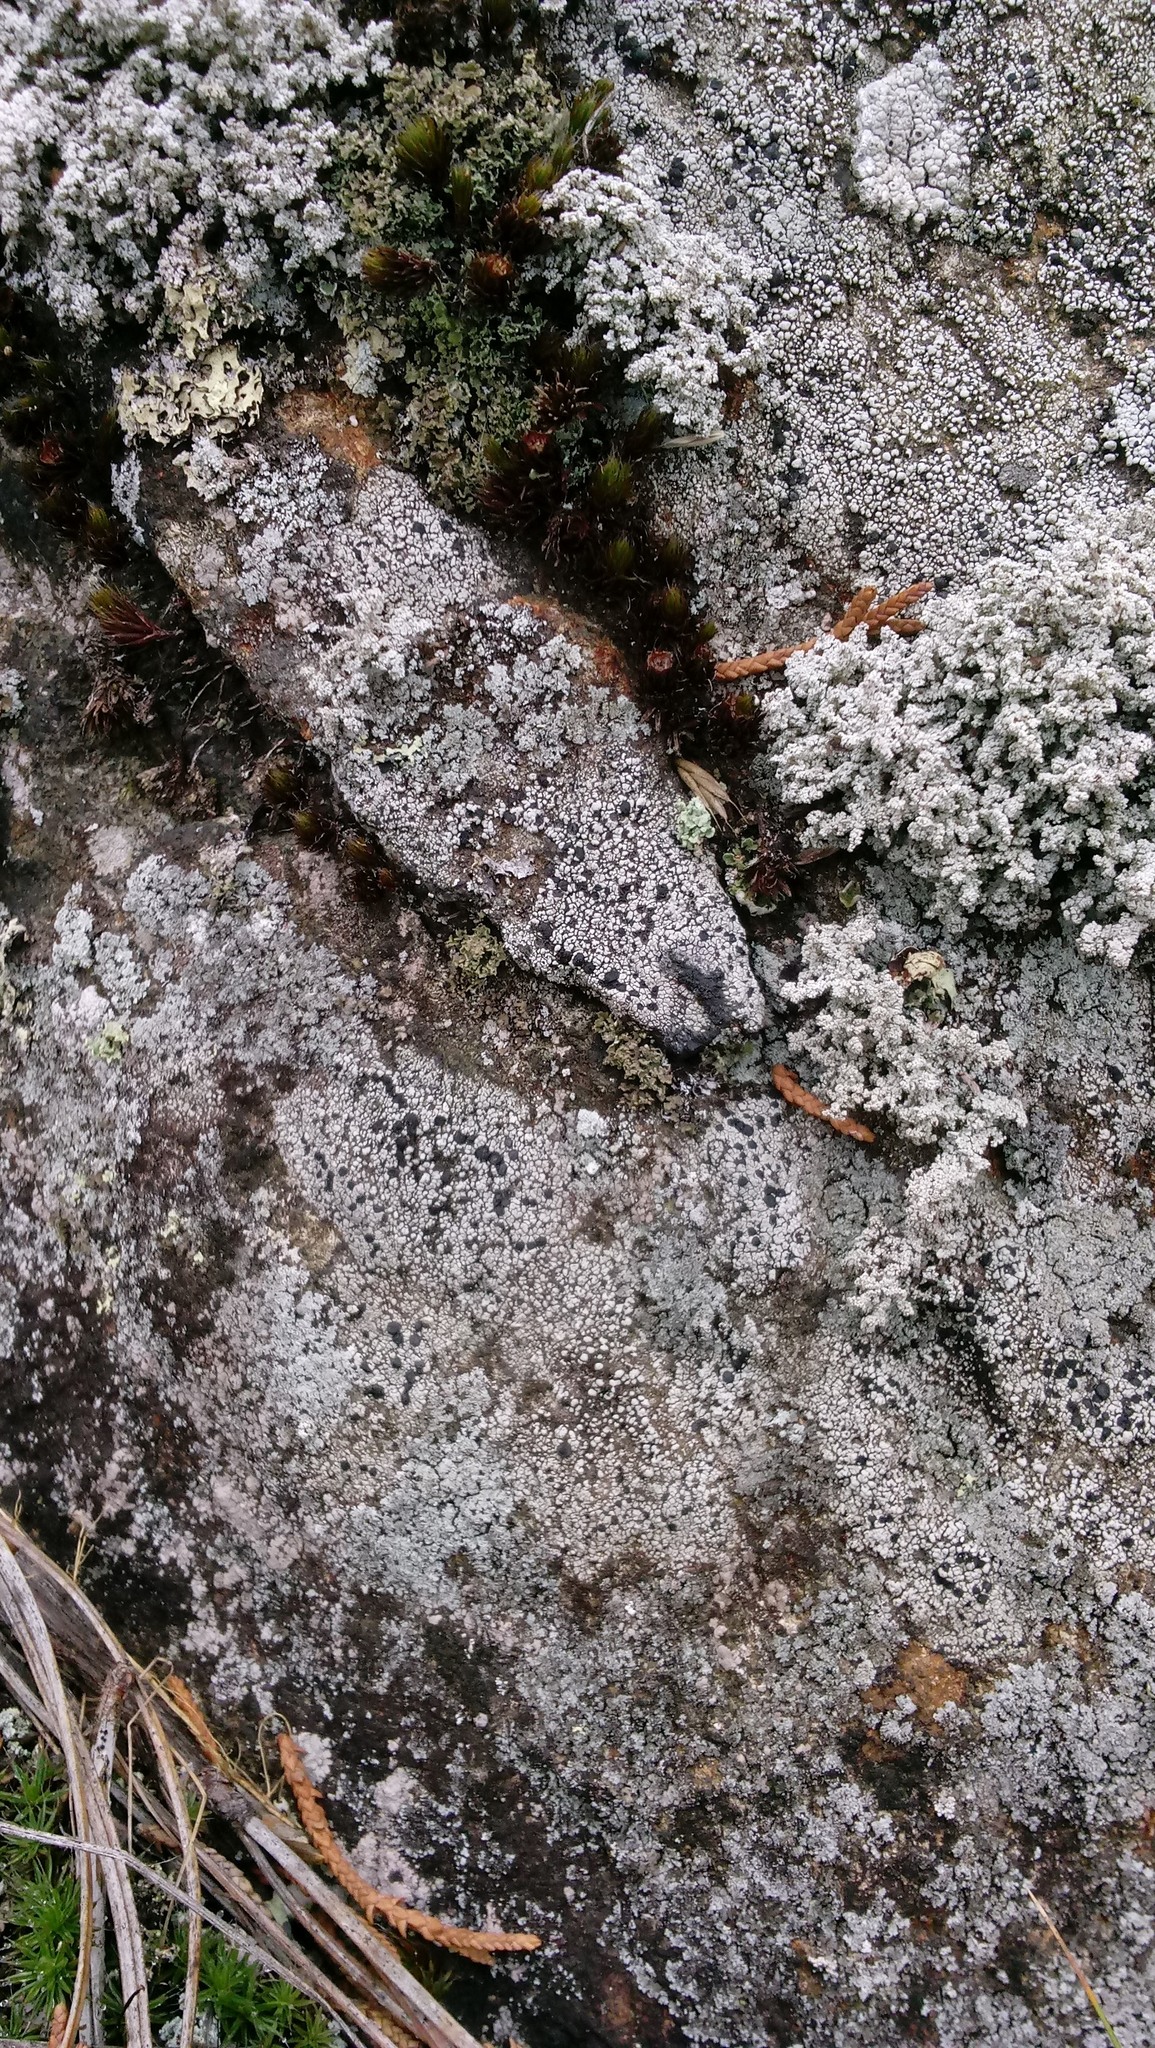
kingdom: Fungi
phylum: Ascomycota
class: Lecanoromycetes
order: Rhizocarpales
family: Rhizocarpaceae
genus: Rhizocarpon
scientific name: Rhizocarpon rubescens
